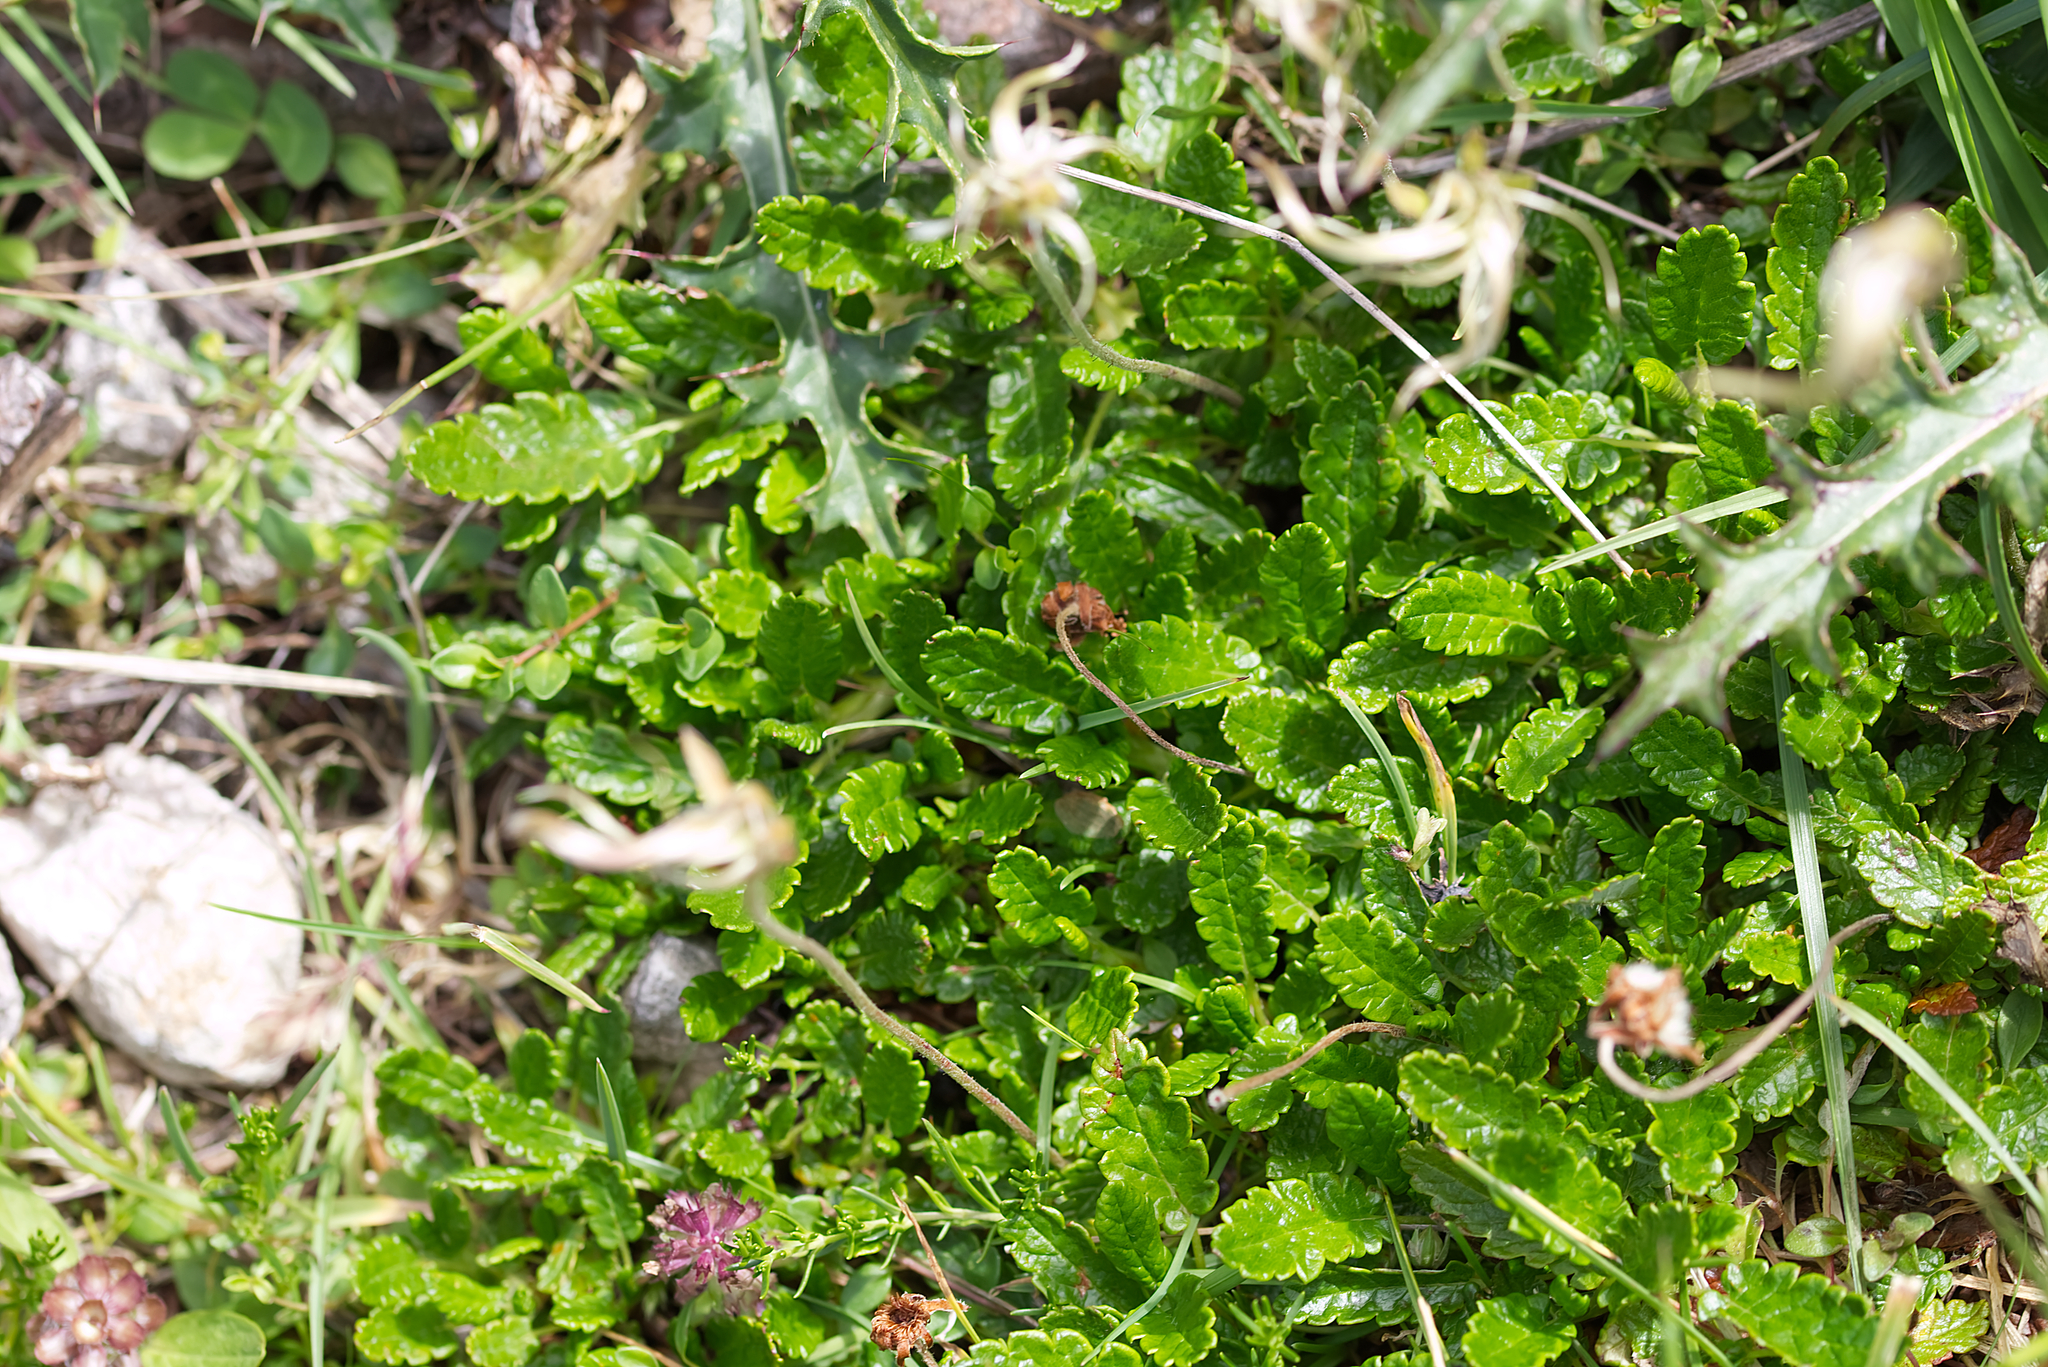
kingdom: Plantae
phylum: Tracheophyta
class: Magnoliopsida
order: Rosales
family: Rosaceae
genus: Dryas
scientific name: Dryas octopetala
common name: Eight-petal mountain-avens
